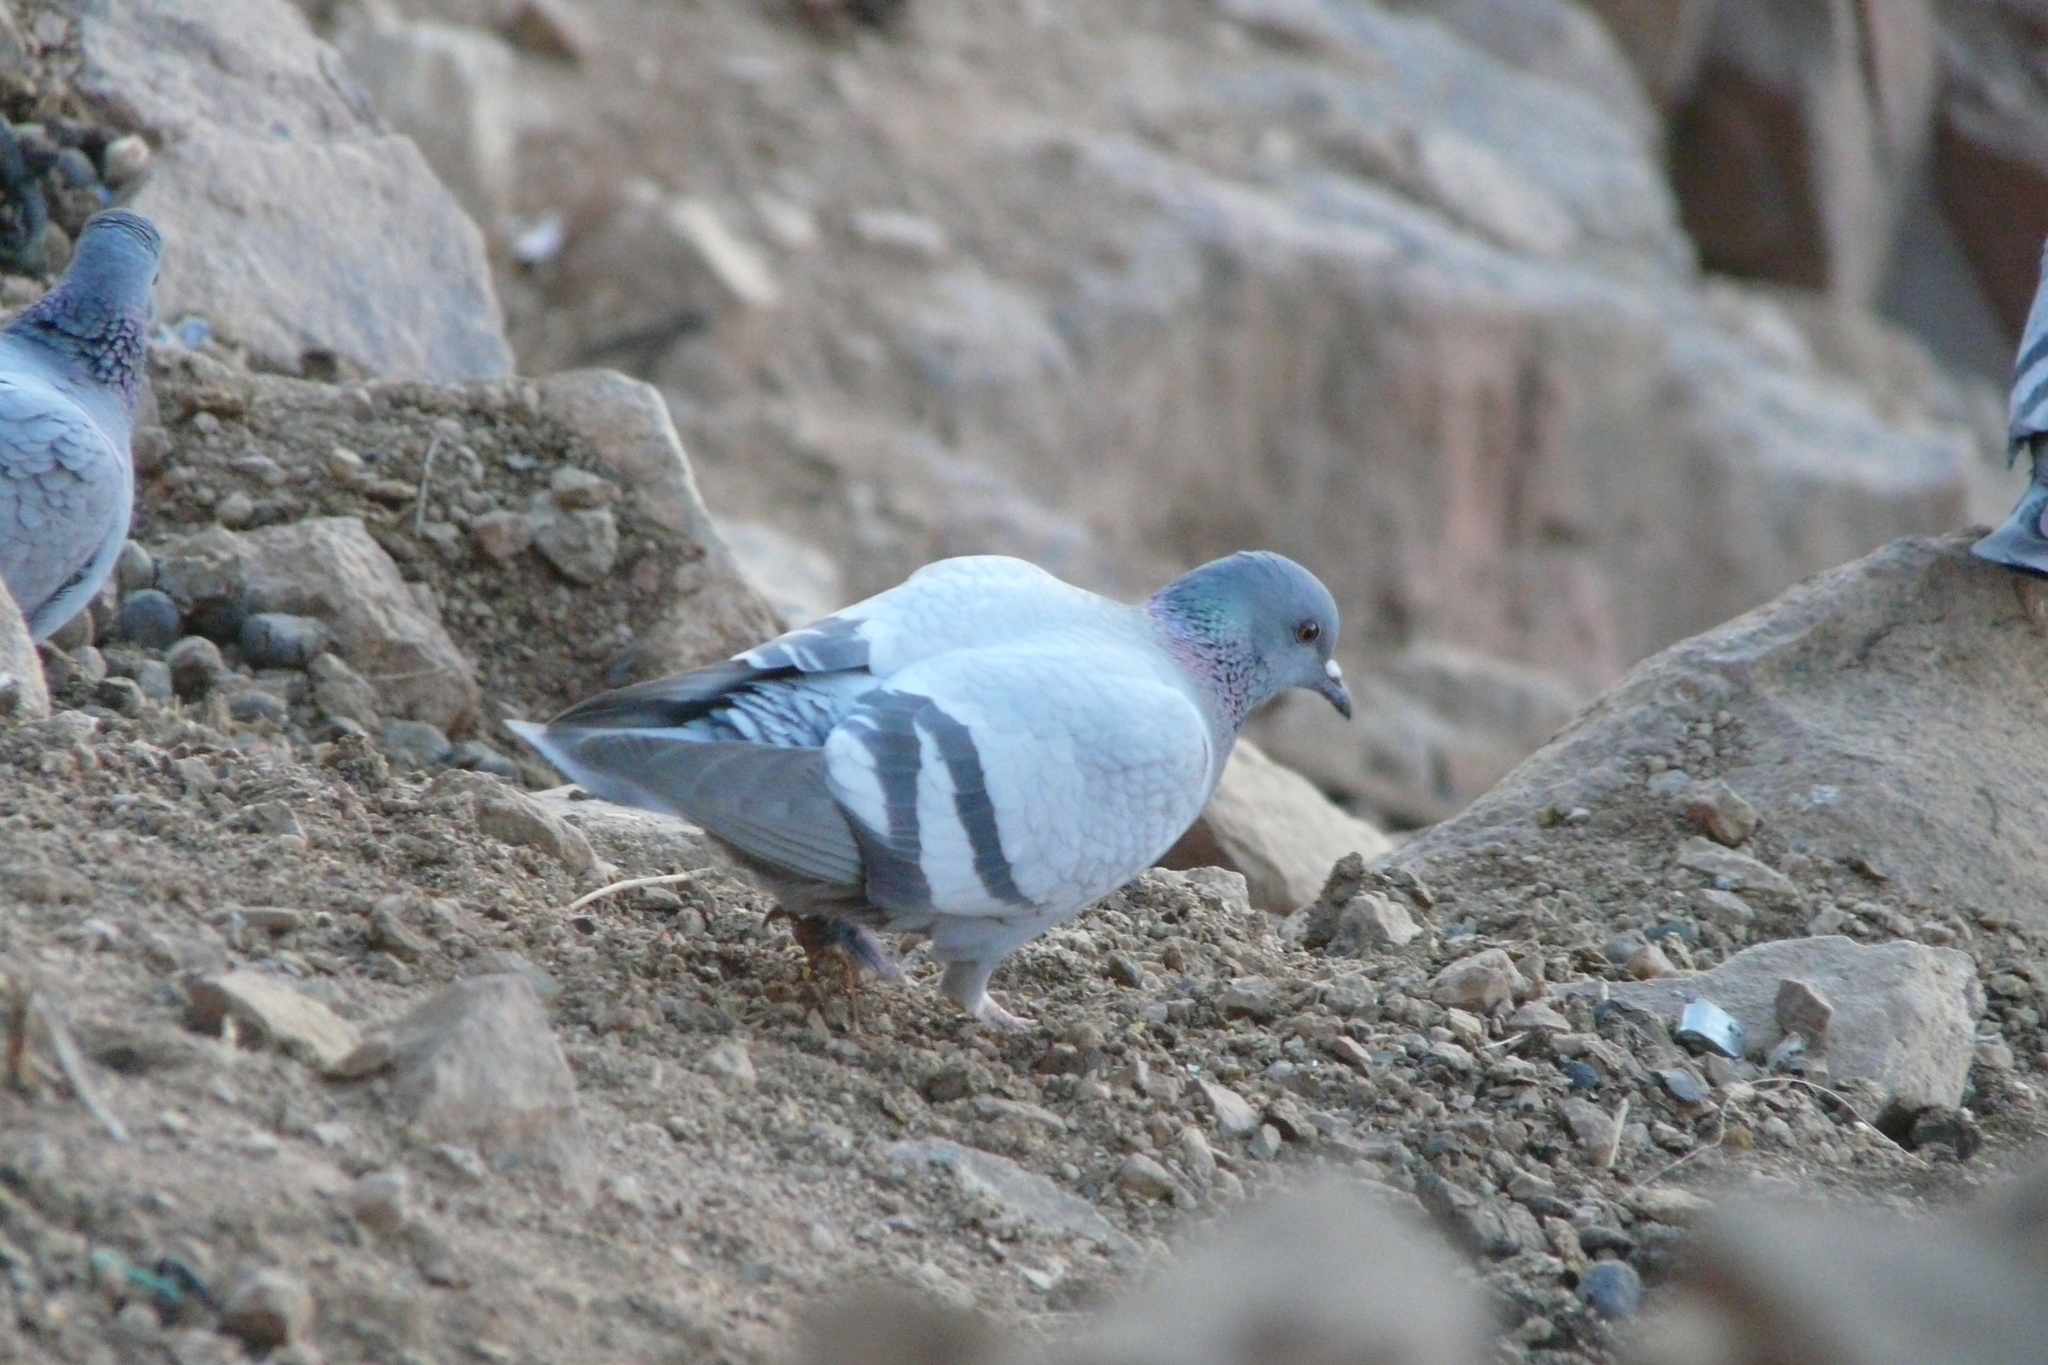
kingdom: Animalia
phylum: Chordata
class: Aves
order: Columbiformes
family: Columbidae
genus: Columba
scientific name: Columba livia
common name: Rock pigeon
